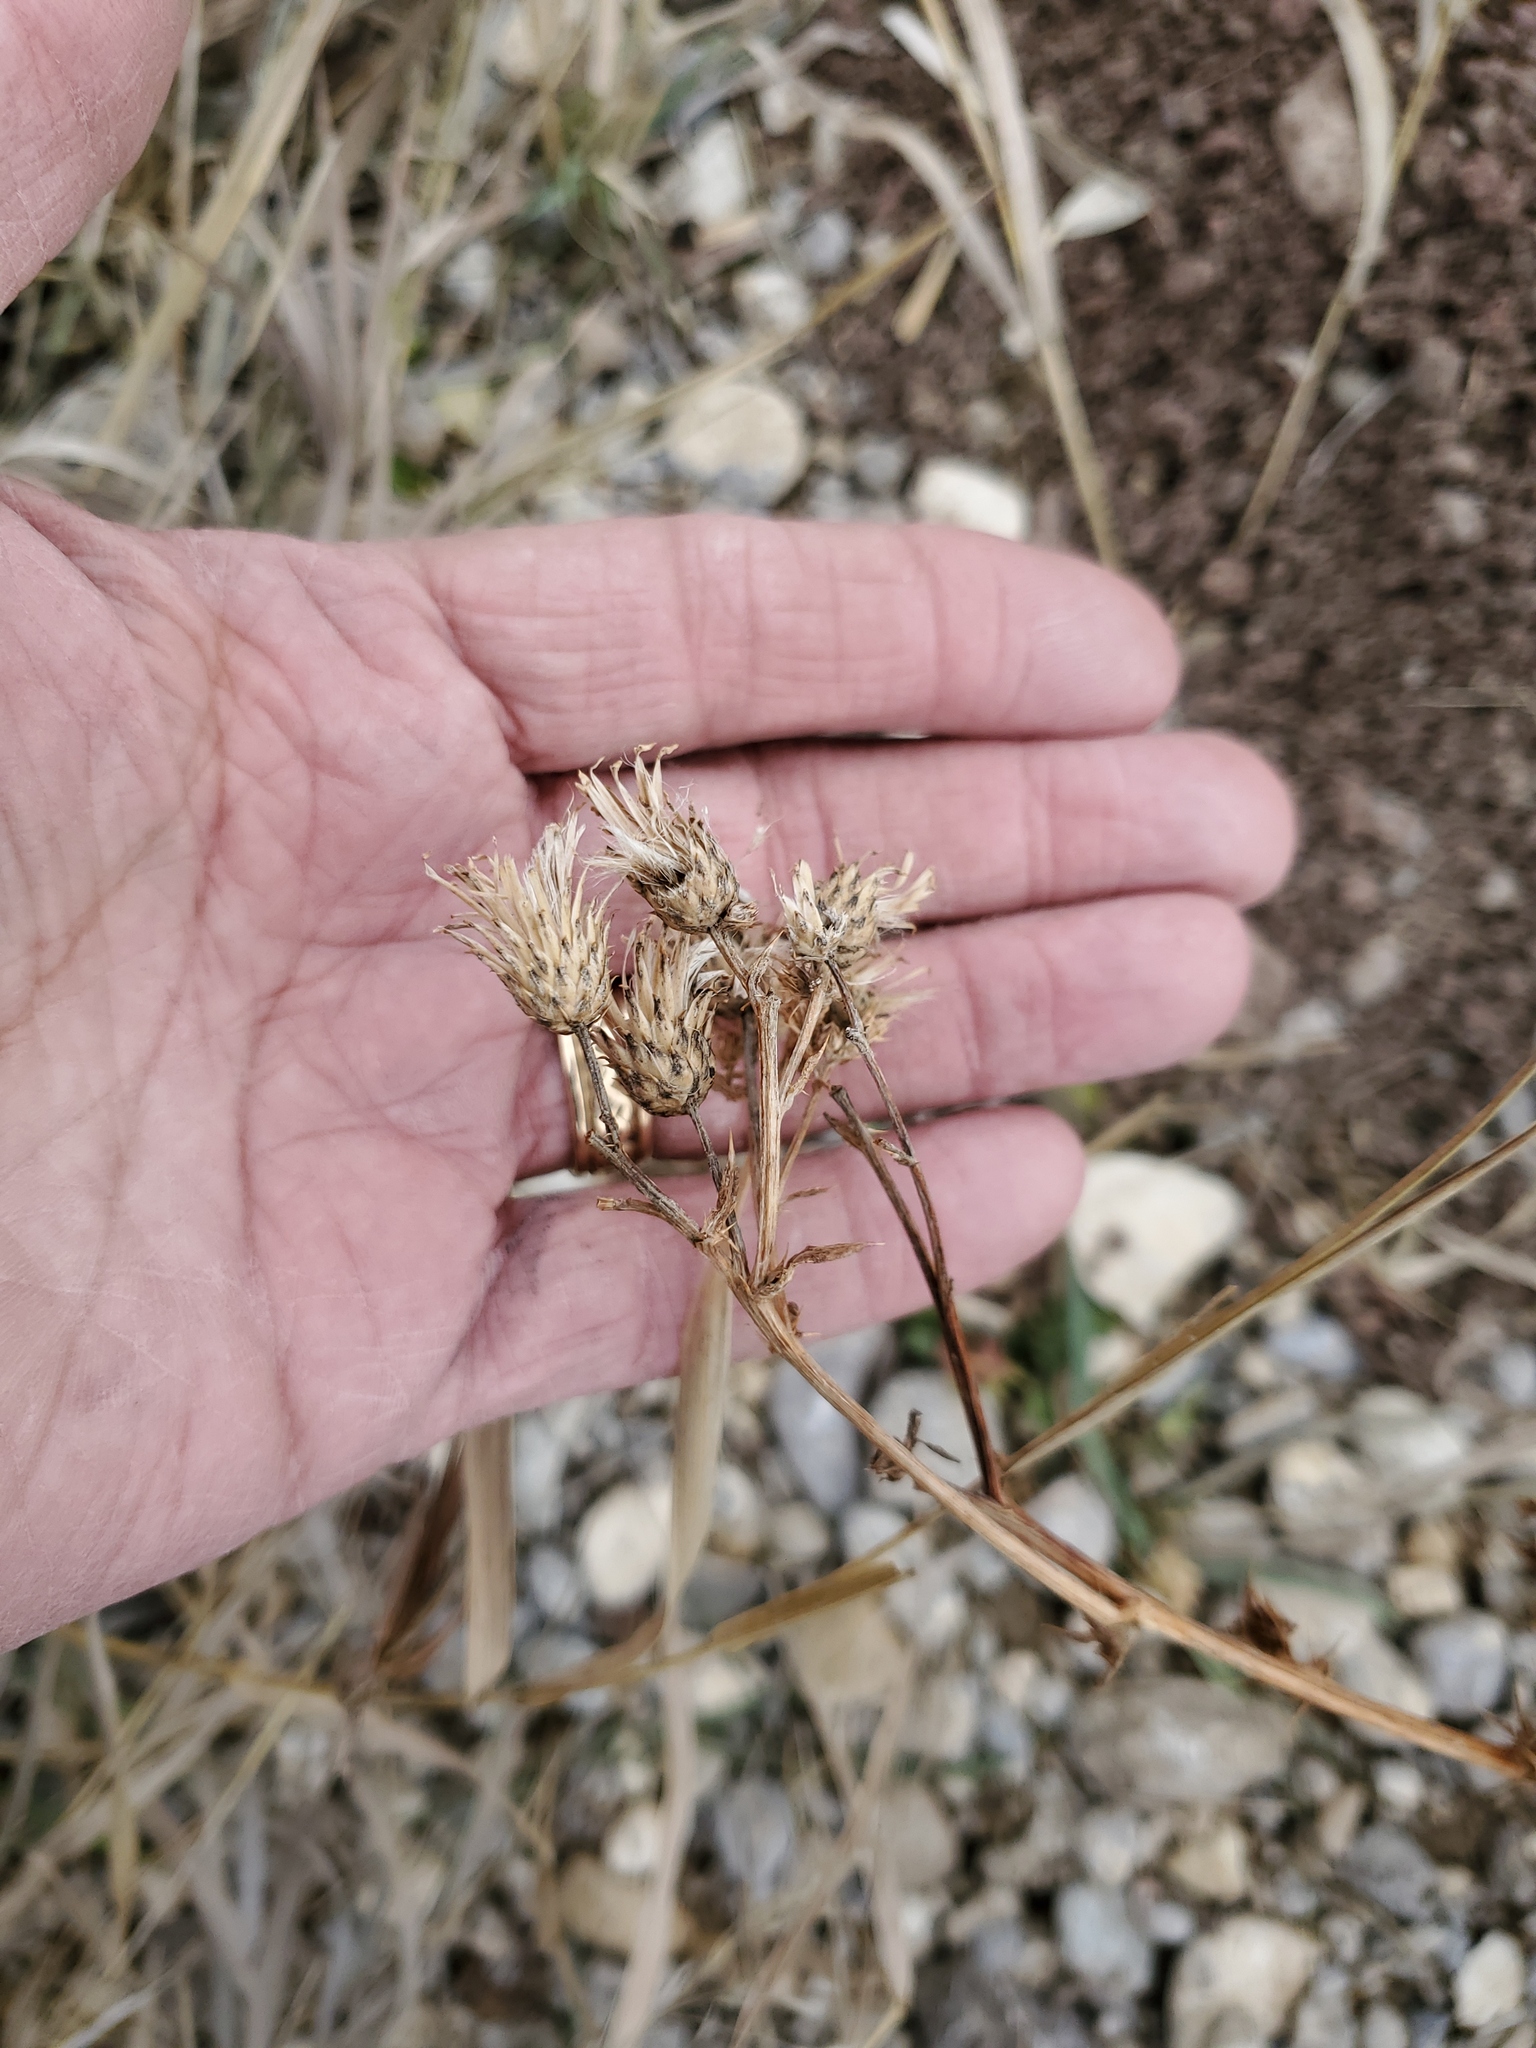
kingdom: Plantae
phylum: Tracheophyta
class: Magnoliopsida
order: Asterales
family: Asteraceae
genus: Cirsium
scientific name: Cirsium arvense
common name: Creeping thistle
